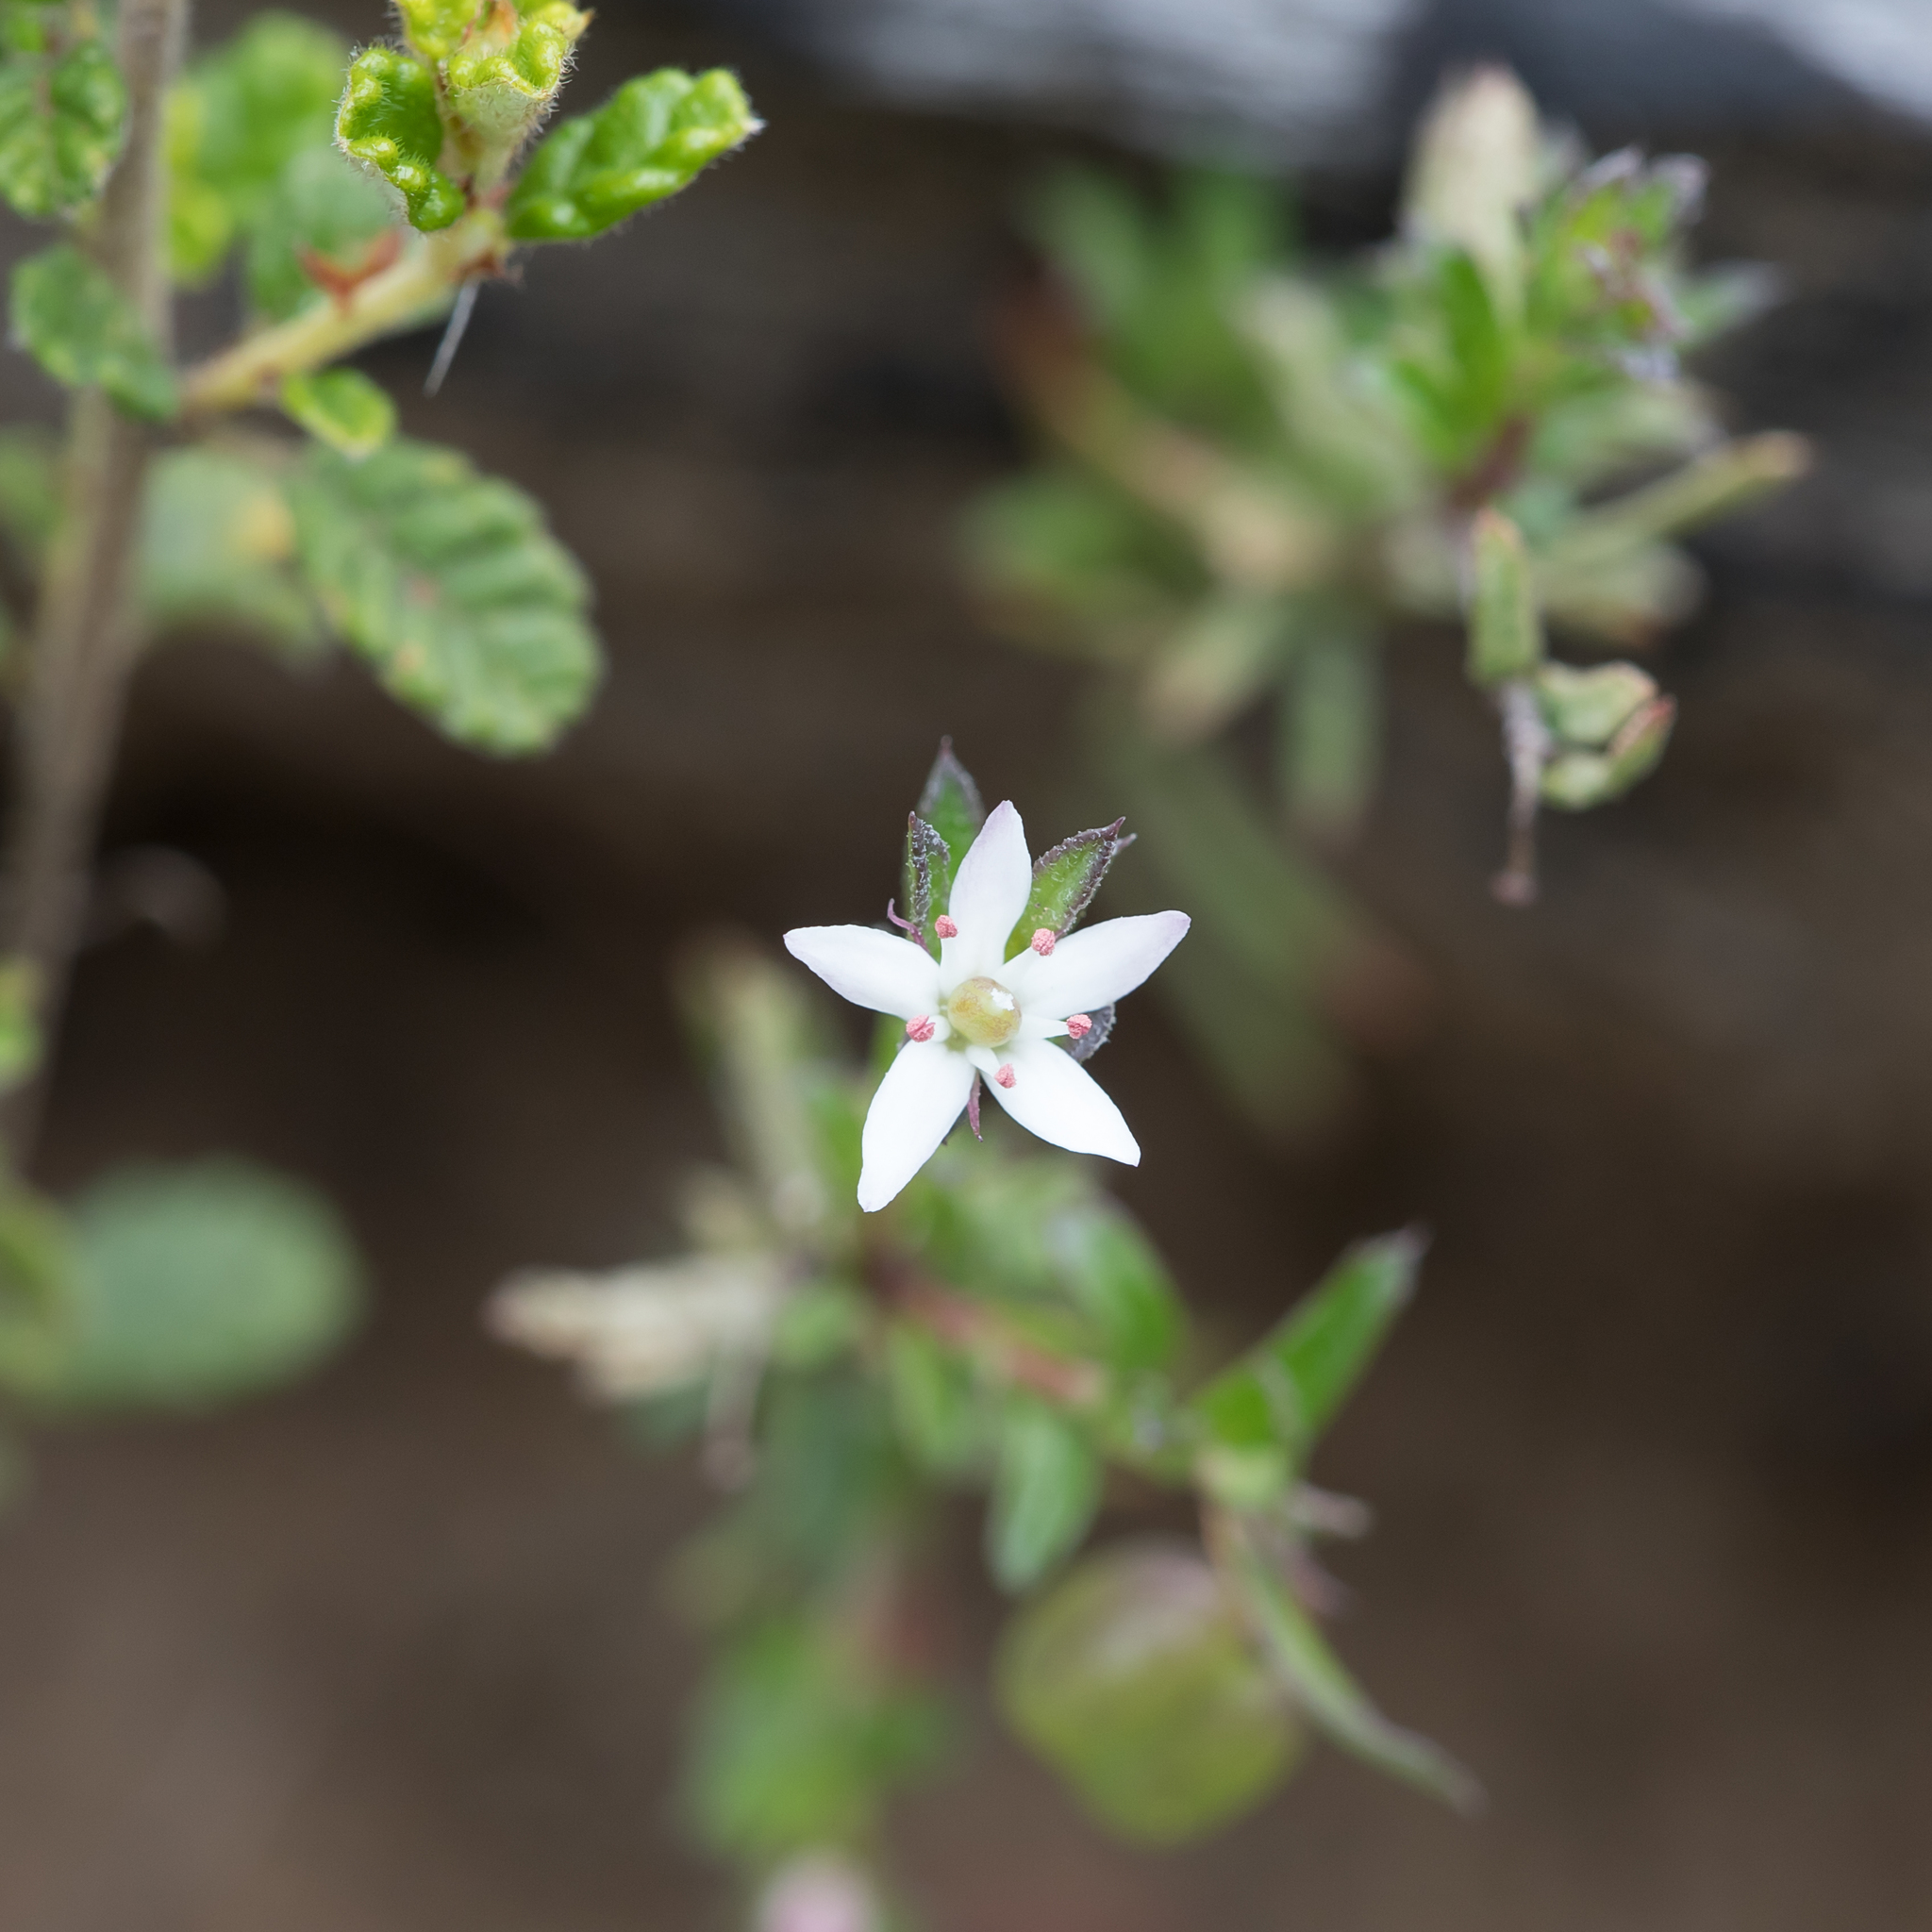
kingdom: Plantae
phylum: Tracheophyta
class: Magnoliopsida
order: Apiales
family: Pittosporaceae
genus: Rhytidosporum
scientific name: Rhytidosporum procumbens
